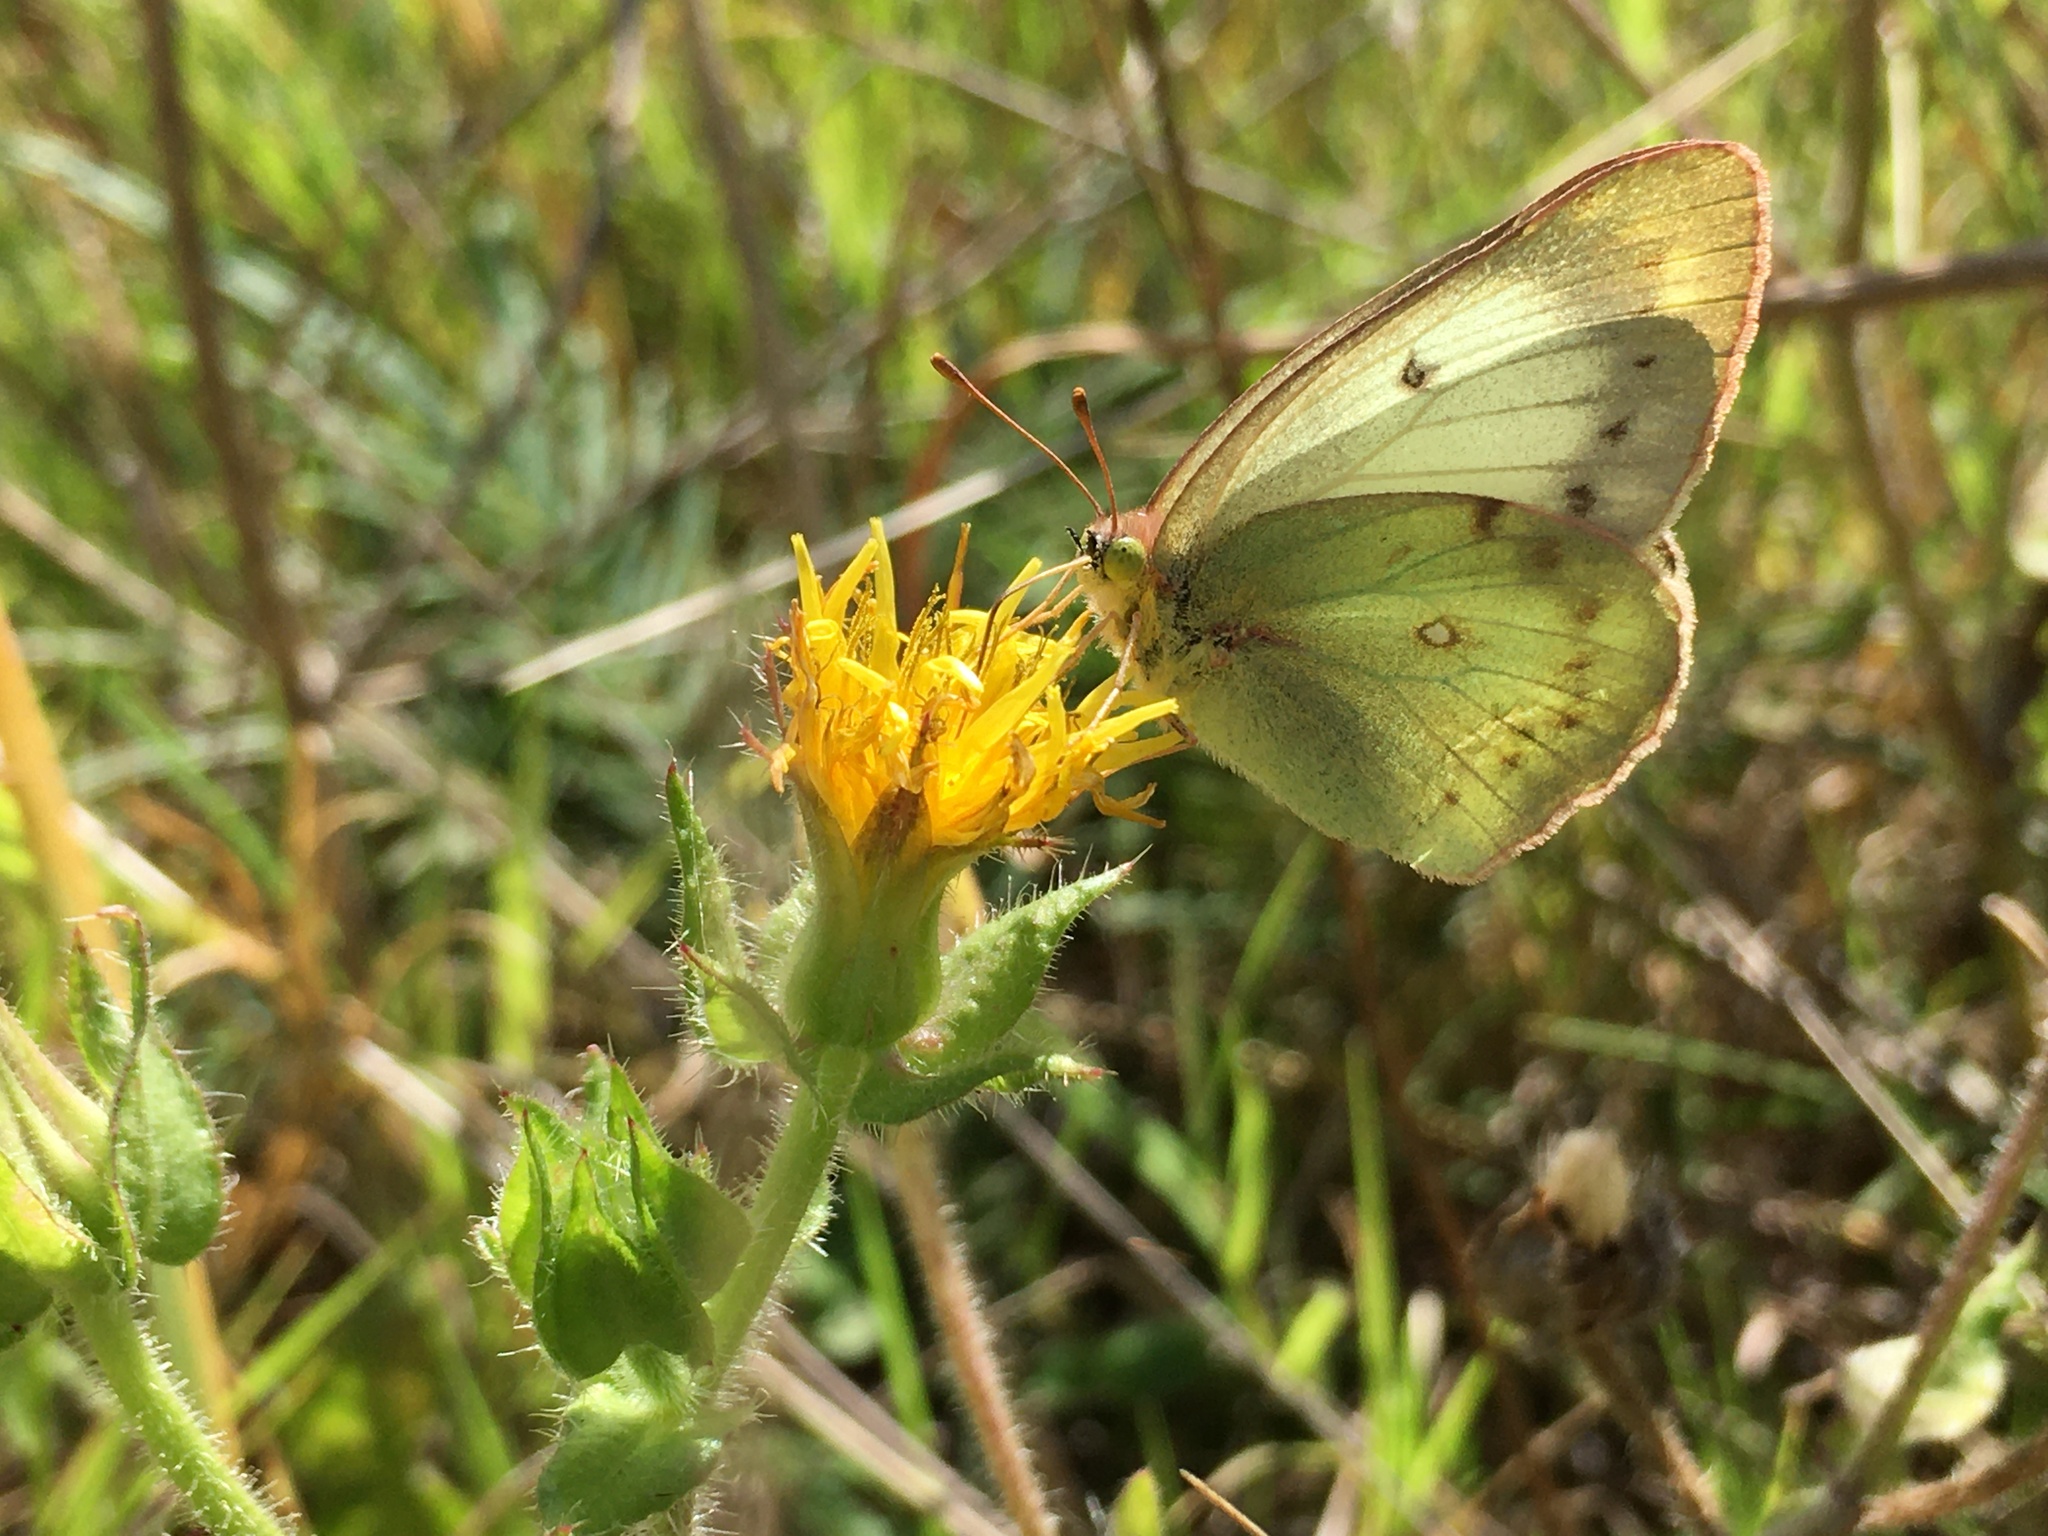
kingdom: Animalia
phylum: Arthropoda
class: Insecta
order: Lepidoptera
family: Pieridae
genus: Colias
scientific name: Colias lesbia
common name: Lesbia clouded yellow
